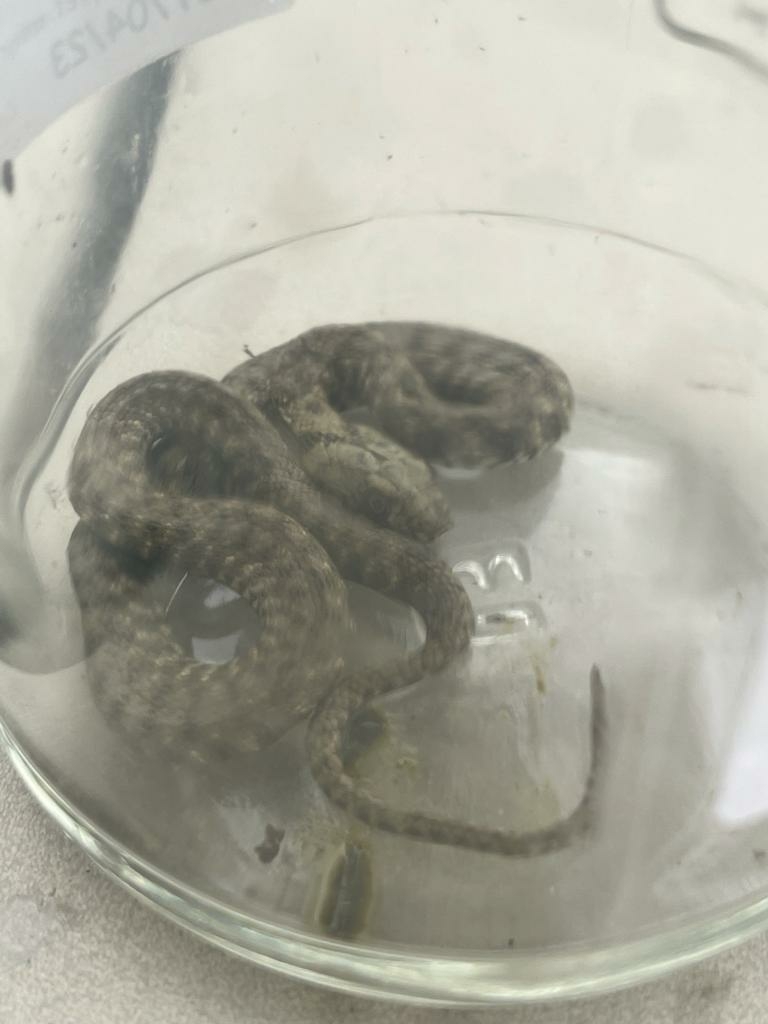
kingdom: Animalia
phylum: Chordata
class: Squamata
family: Colubridae
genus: Natrix
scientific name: Natrix tessellata
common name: Dice snake
